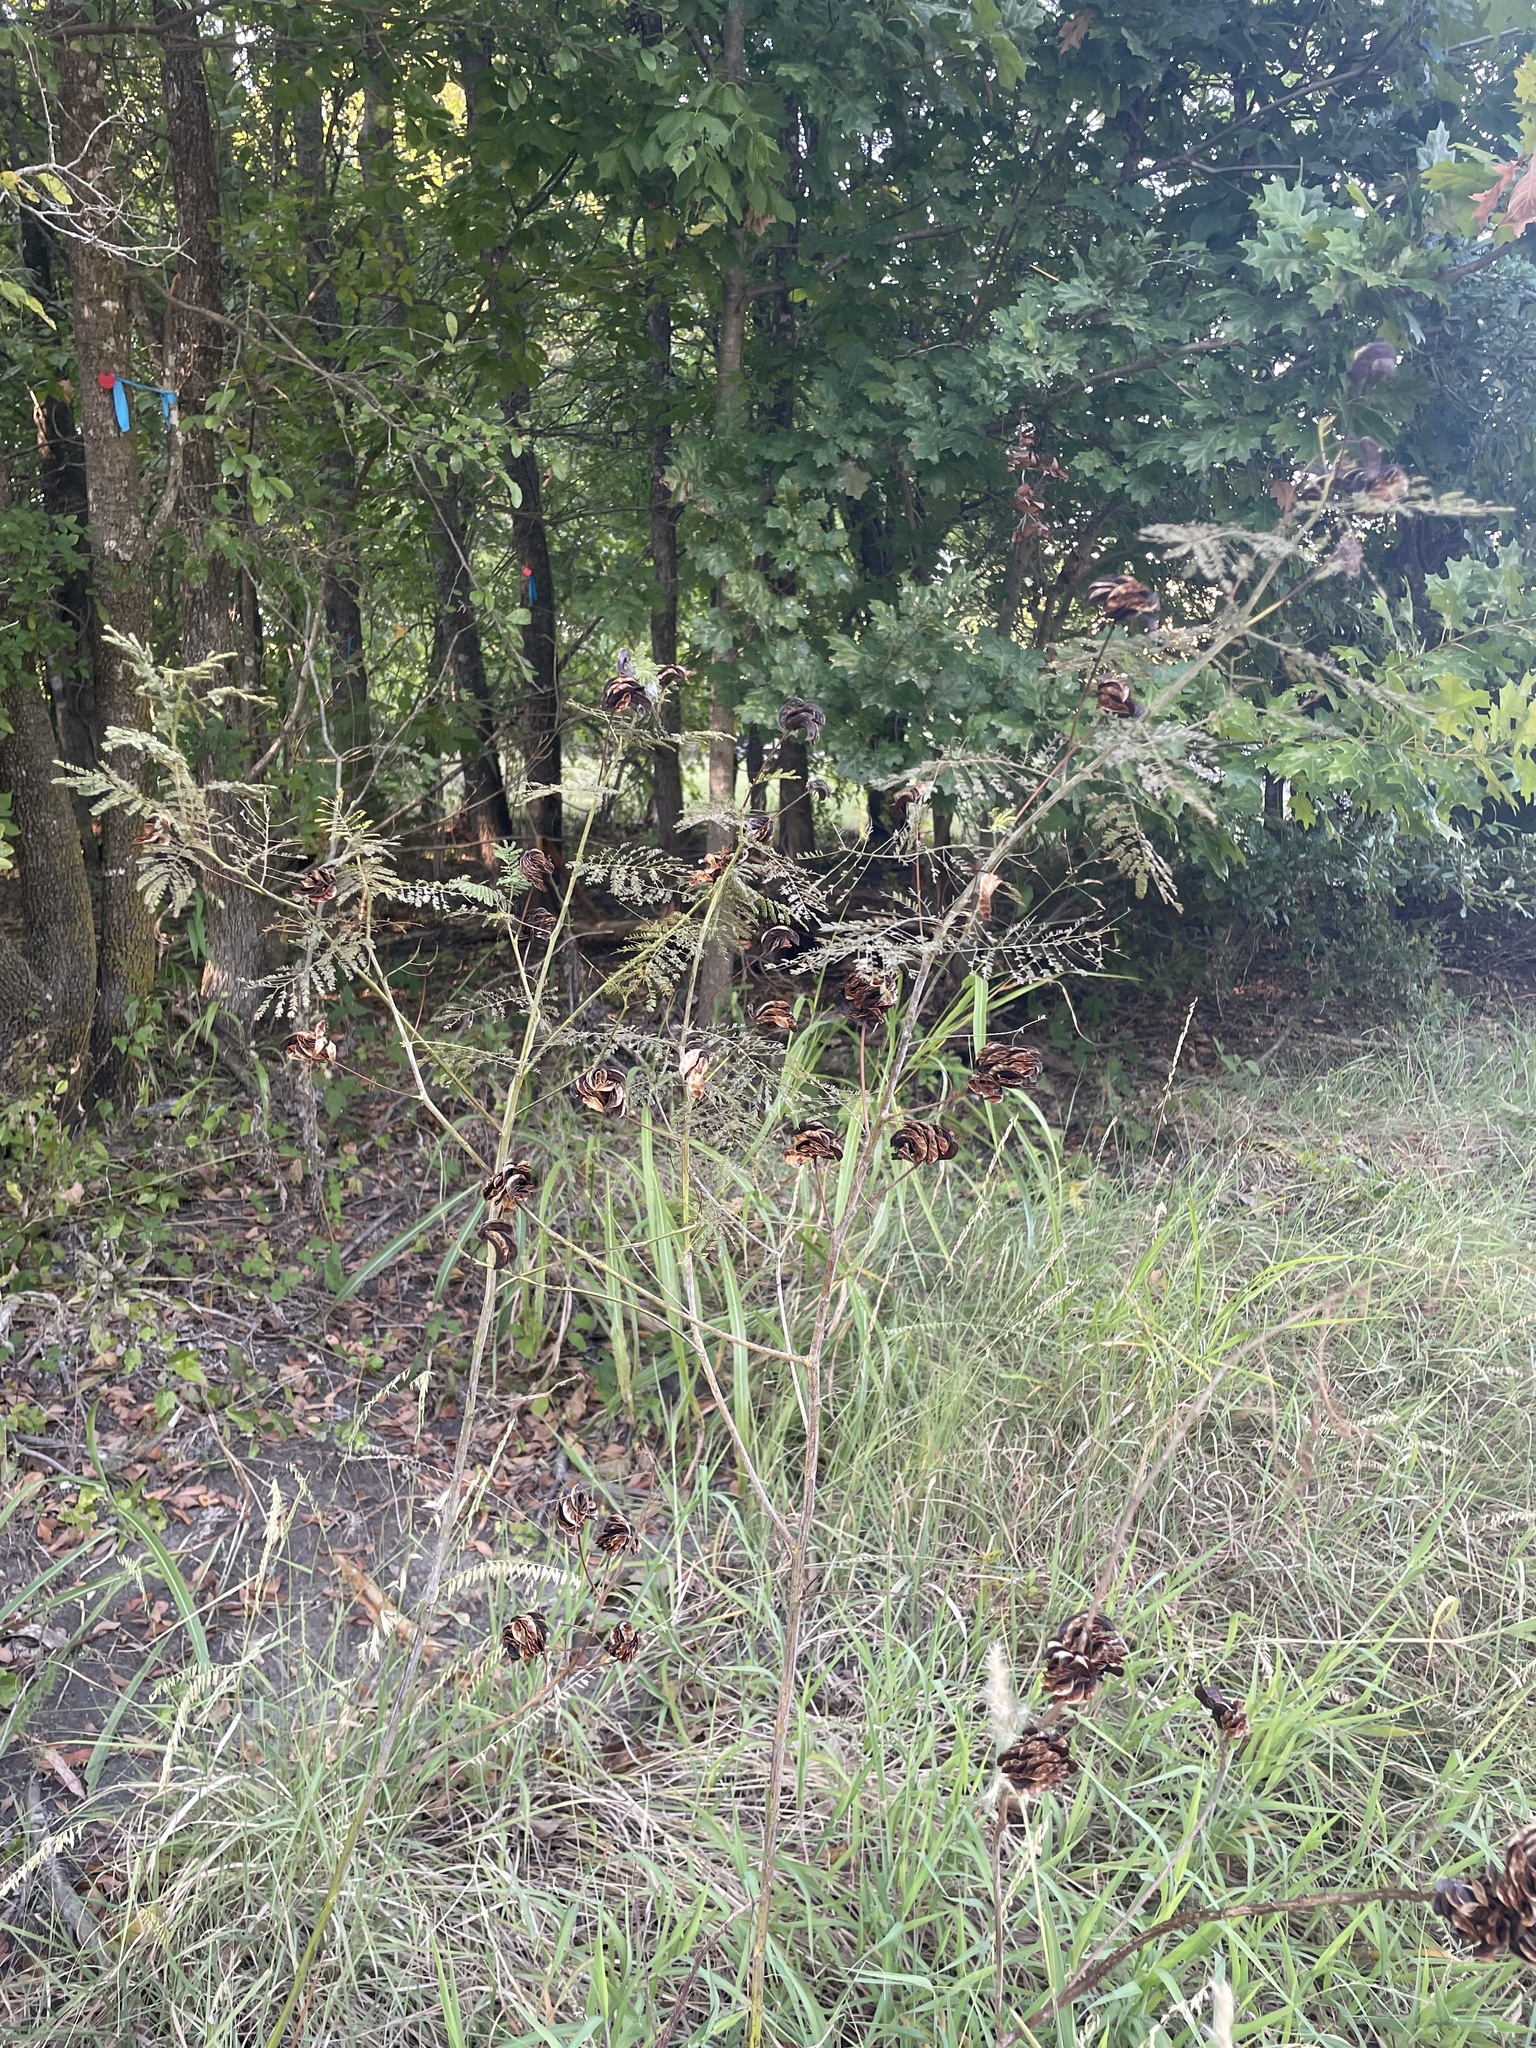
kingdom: Plantae
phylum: Tracheophyta
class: Magnoliopsida
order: Fabales
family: Fabaceae
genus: Desmanthus
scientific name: Desmanthus illinoensis
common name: Illinois bundle-flower
